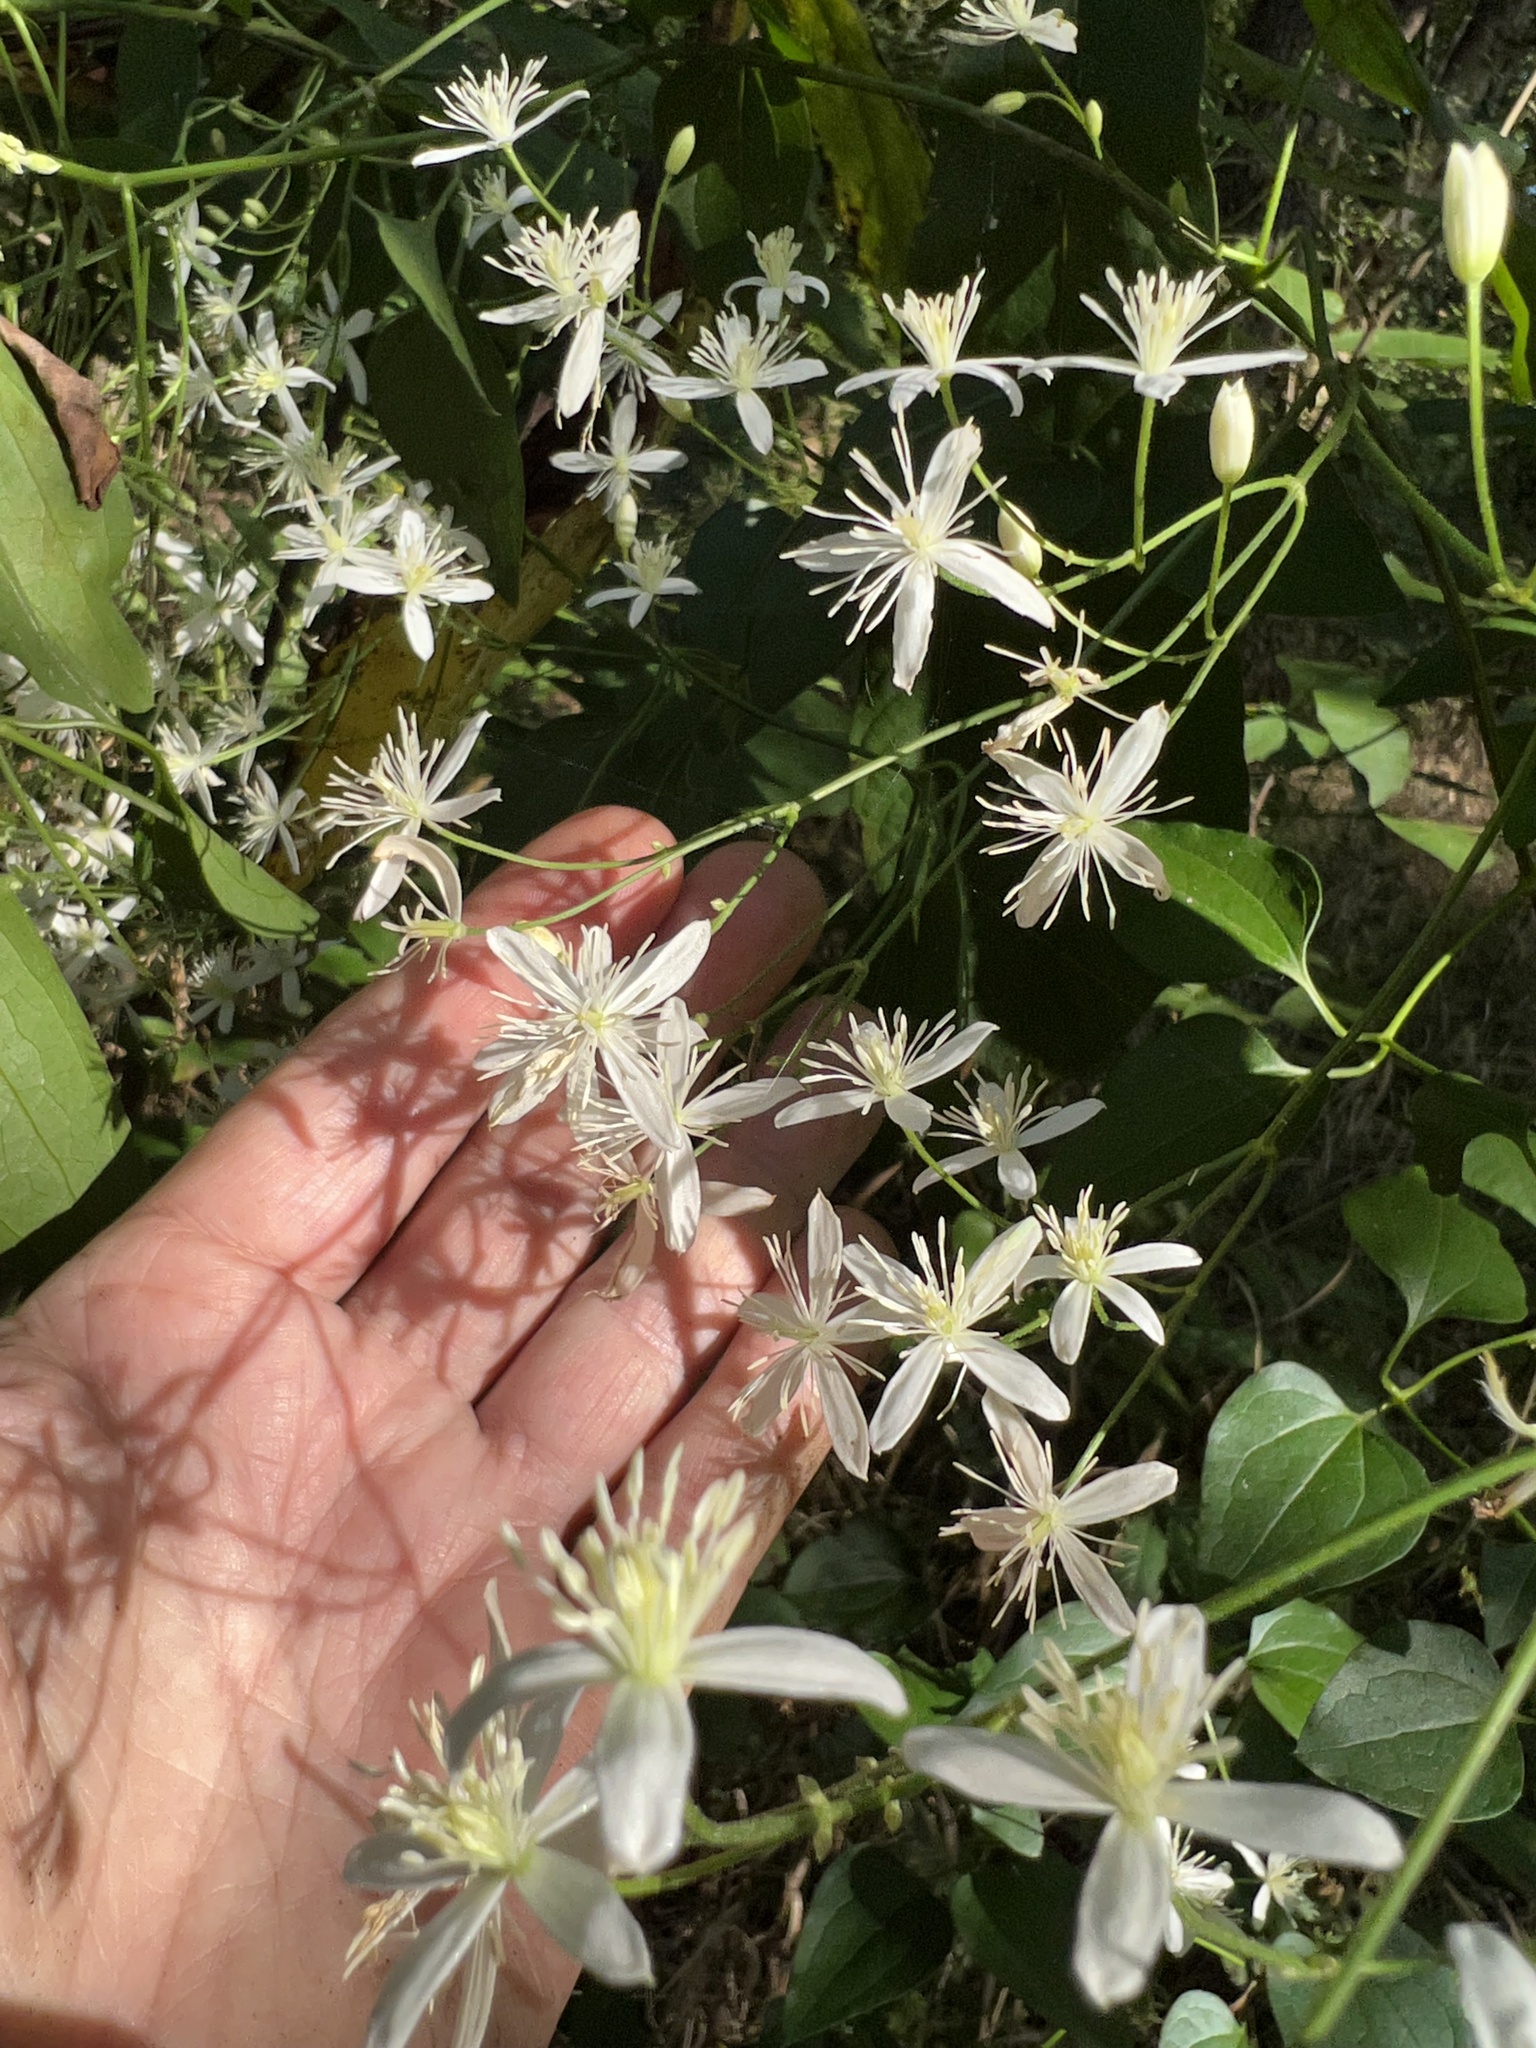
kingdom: Plantae
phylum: Tracheophyta
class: Magnoliopsida
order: Ranunculales
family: Ranunculaceae
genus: Clematis
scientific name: Clematis terniflora
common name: Sweet autumn clematis
